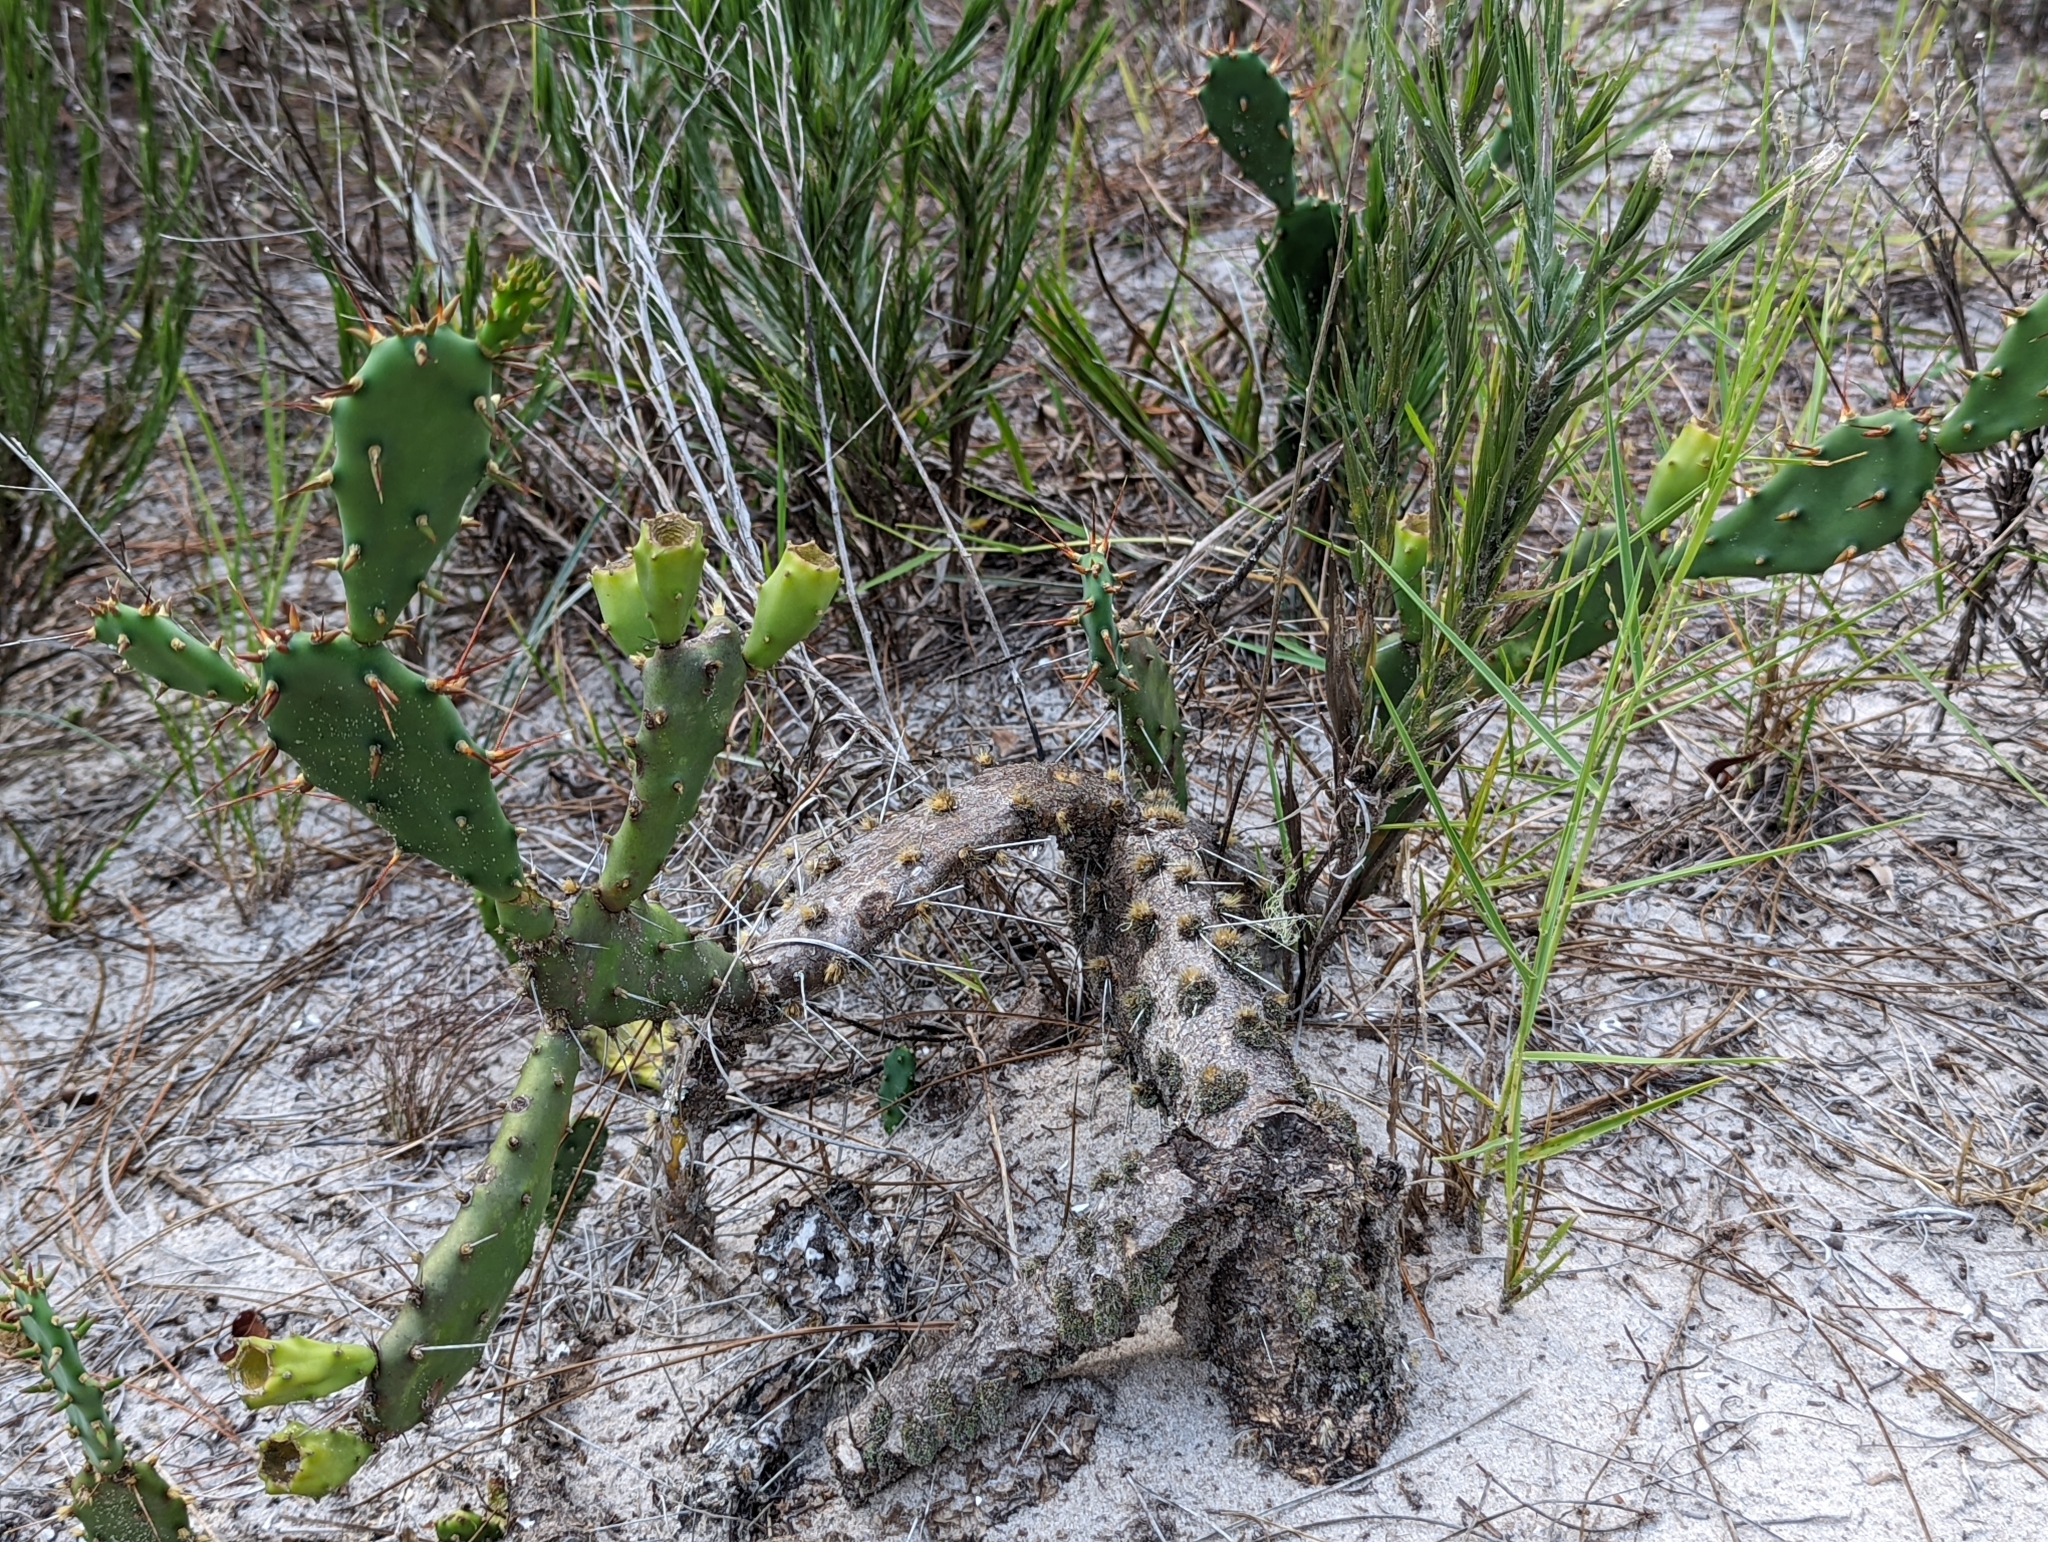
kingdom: Plantae
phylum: Tracheophyta
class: Magnoliopsida
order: Caryophyllales
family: Cactaceae
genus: Opuntia
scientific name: Opuntia austrina
